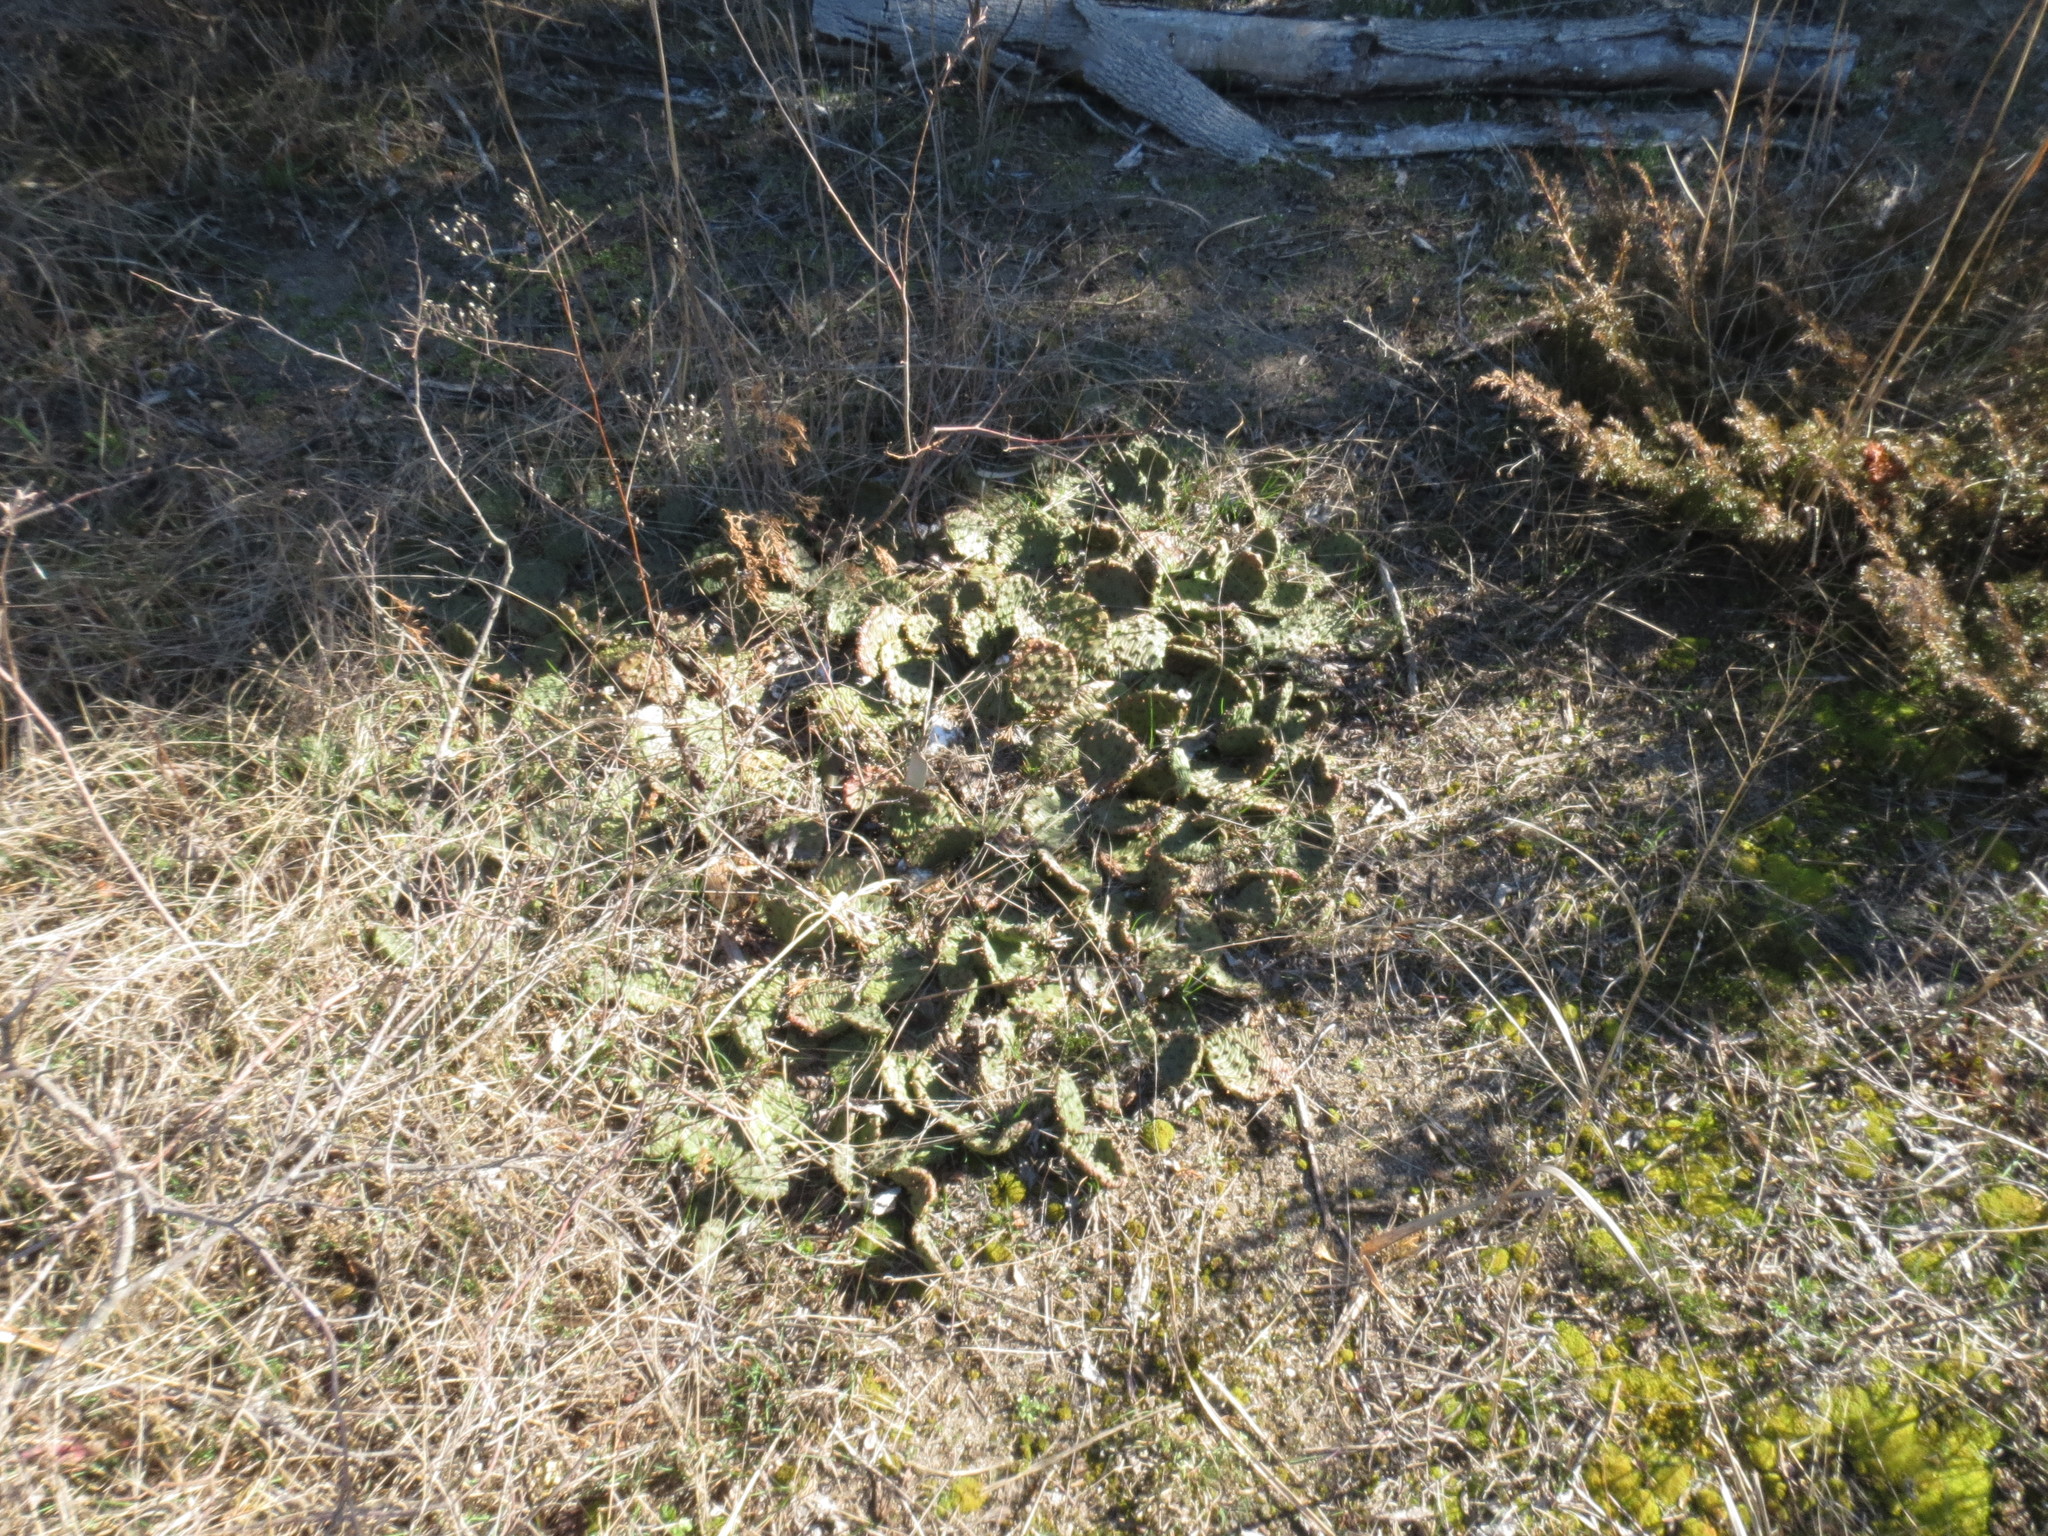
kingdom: Plantae
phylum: Tracheophyta
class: Magnoliopsida
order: Caryophyllales
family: Cactaceae
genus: Opuntia
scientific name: Opuntia humifusa
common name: Eastern prickly-pear
